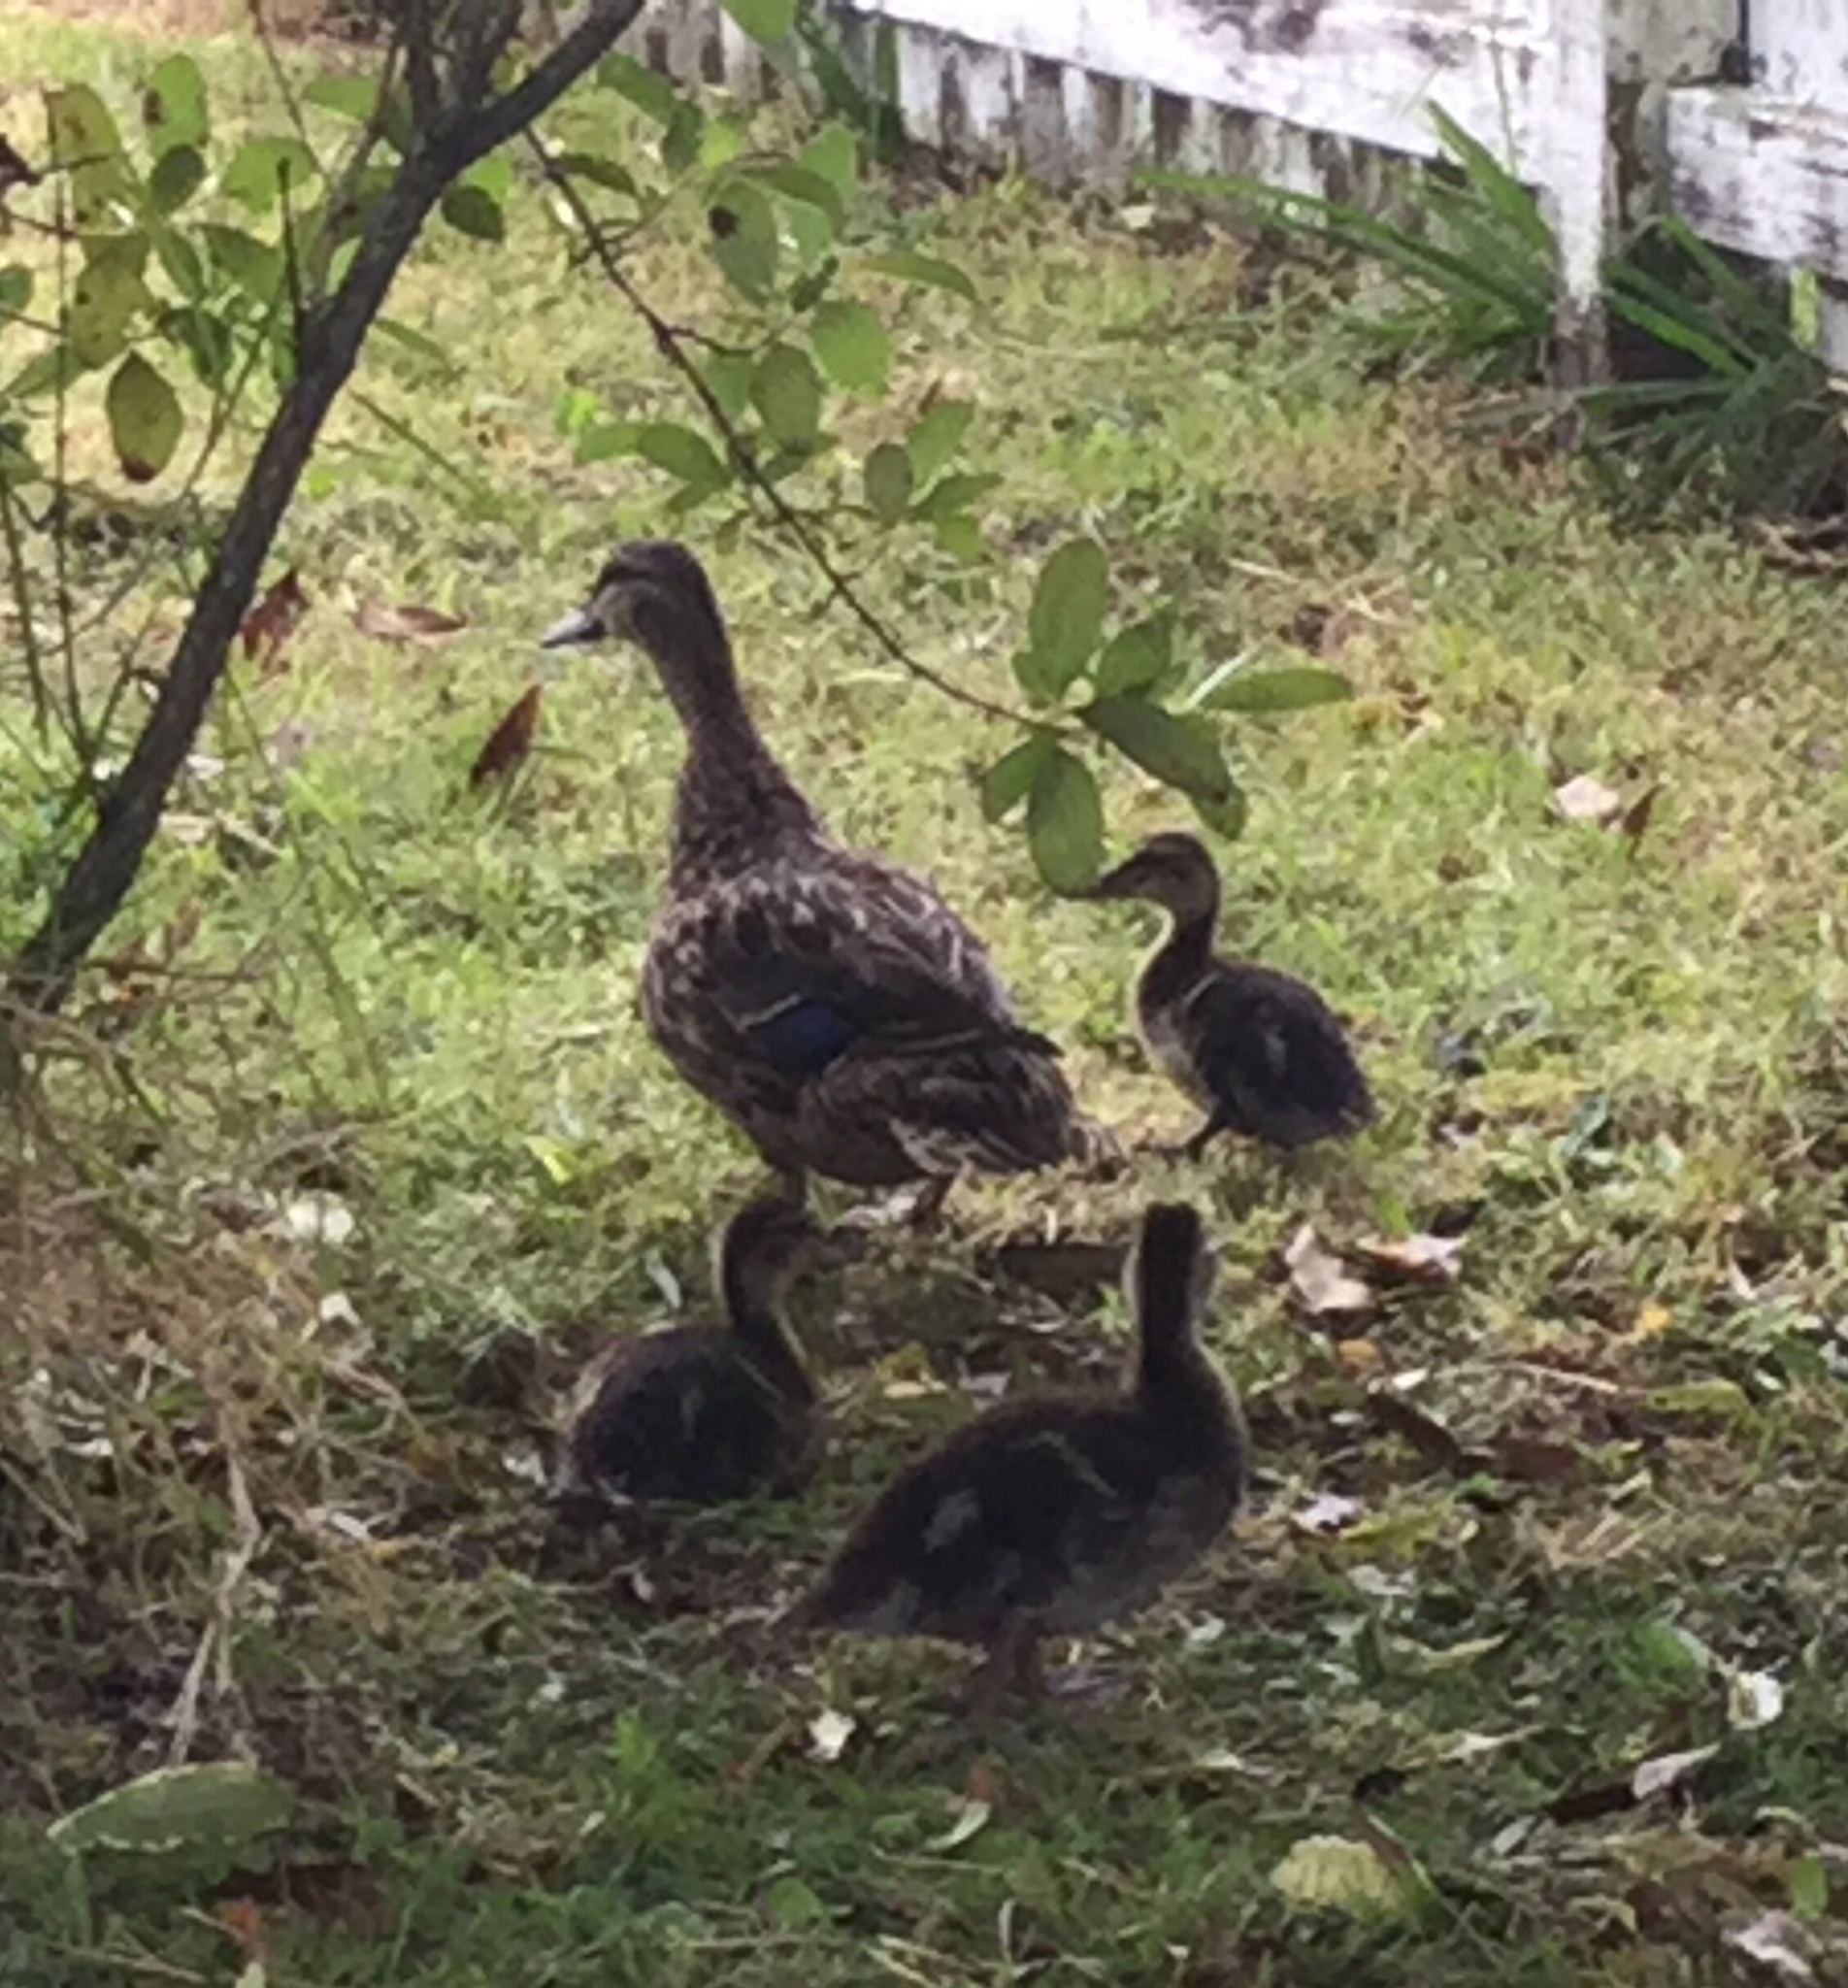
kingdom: Animalia
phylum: Chordata
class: Aves
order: Anseriformes
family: Anatidae
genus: Anas
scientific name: Anas
